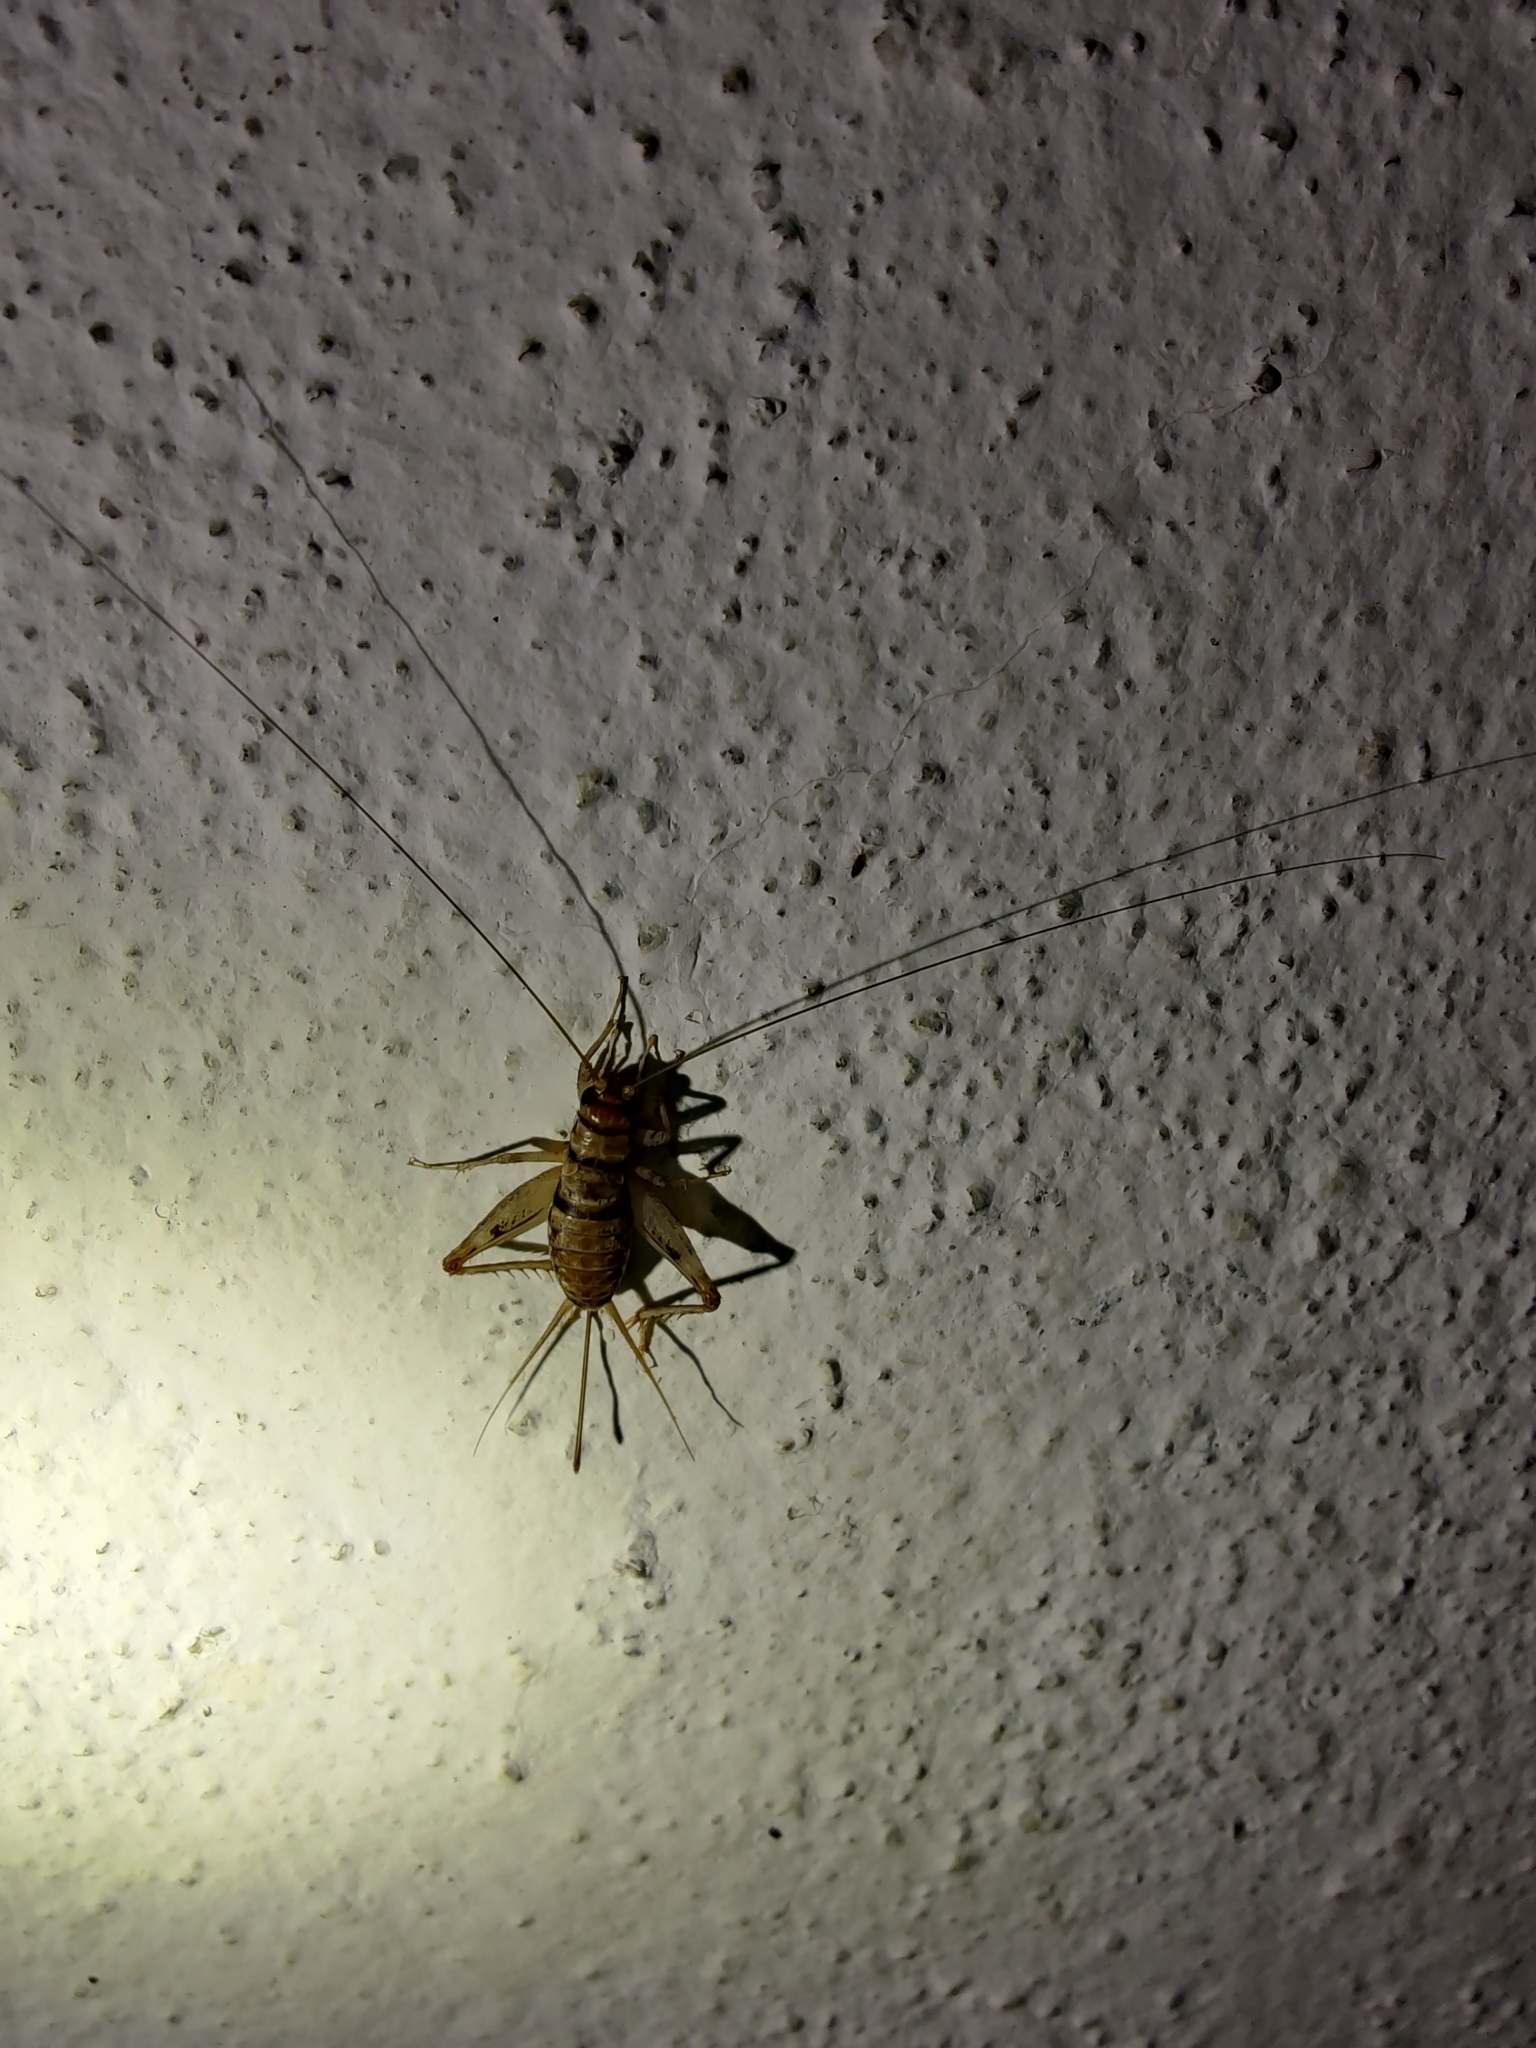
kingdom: Animalia
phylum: Arthropoda
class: Insecta
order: Orthoptera
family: Gryllidae
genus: Gryllodes
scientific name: Gryllodes sigillatus
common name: Tropical house cricket
